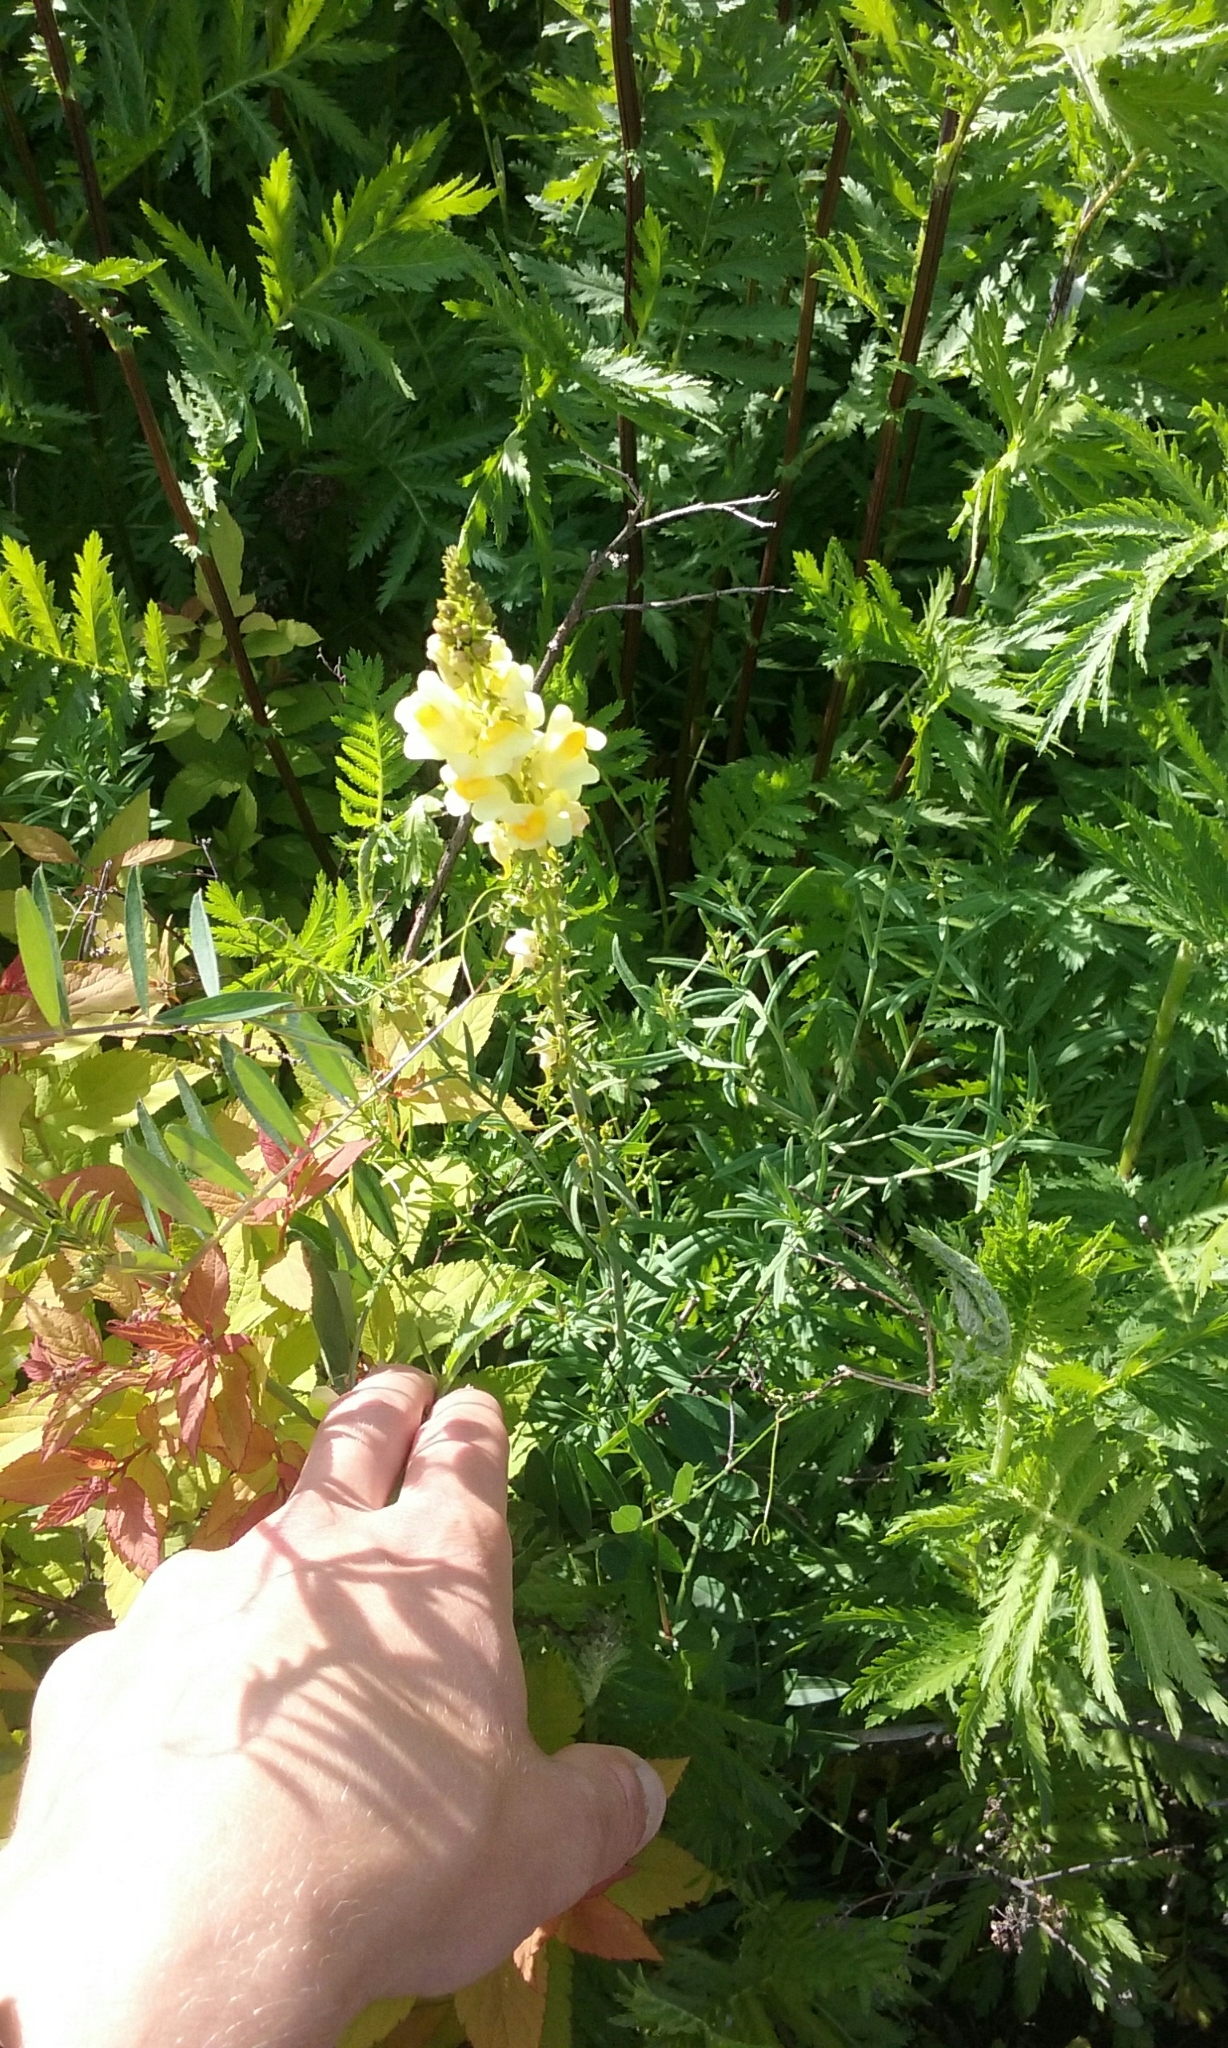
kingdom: Plantae
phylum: Tracheophyta
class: Magnoliopsida
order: Lamiales
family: Plantaginaceae
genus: Linaria
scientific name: Linaria vulgaris
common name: Butter and eggs
